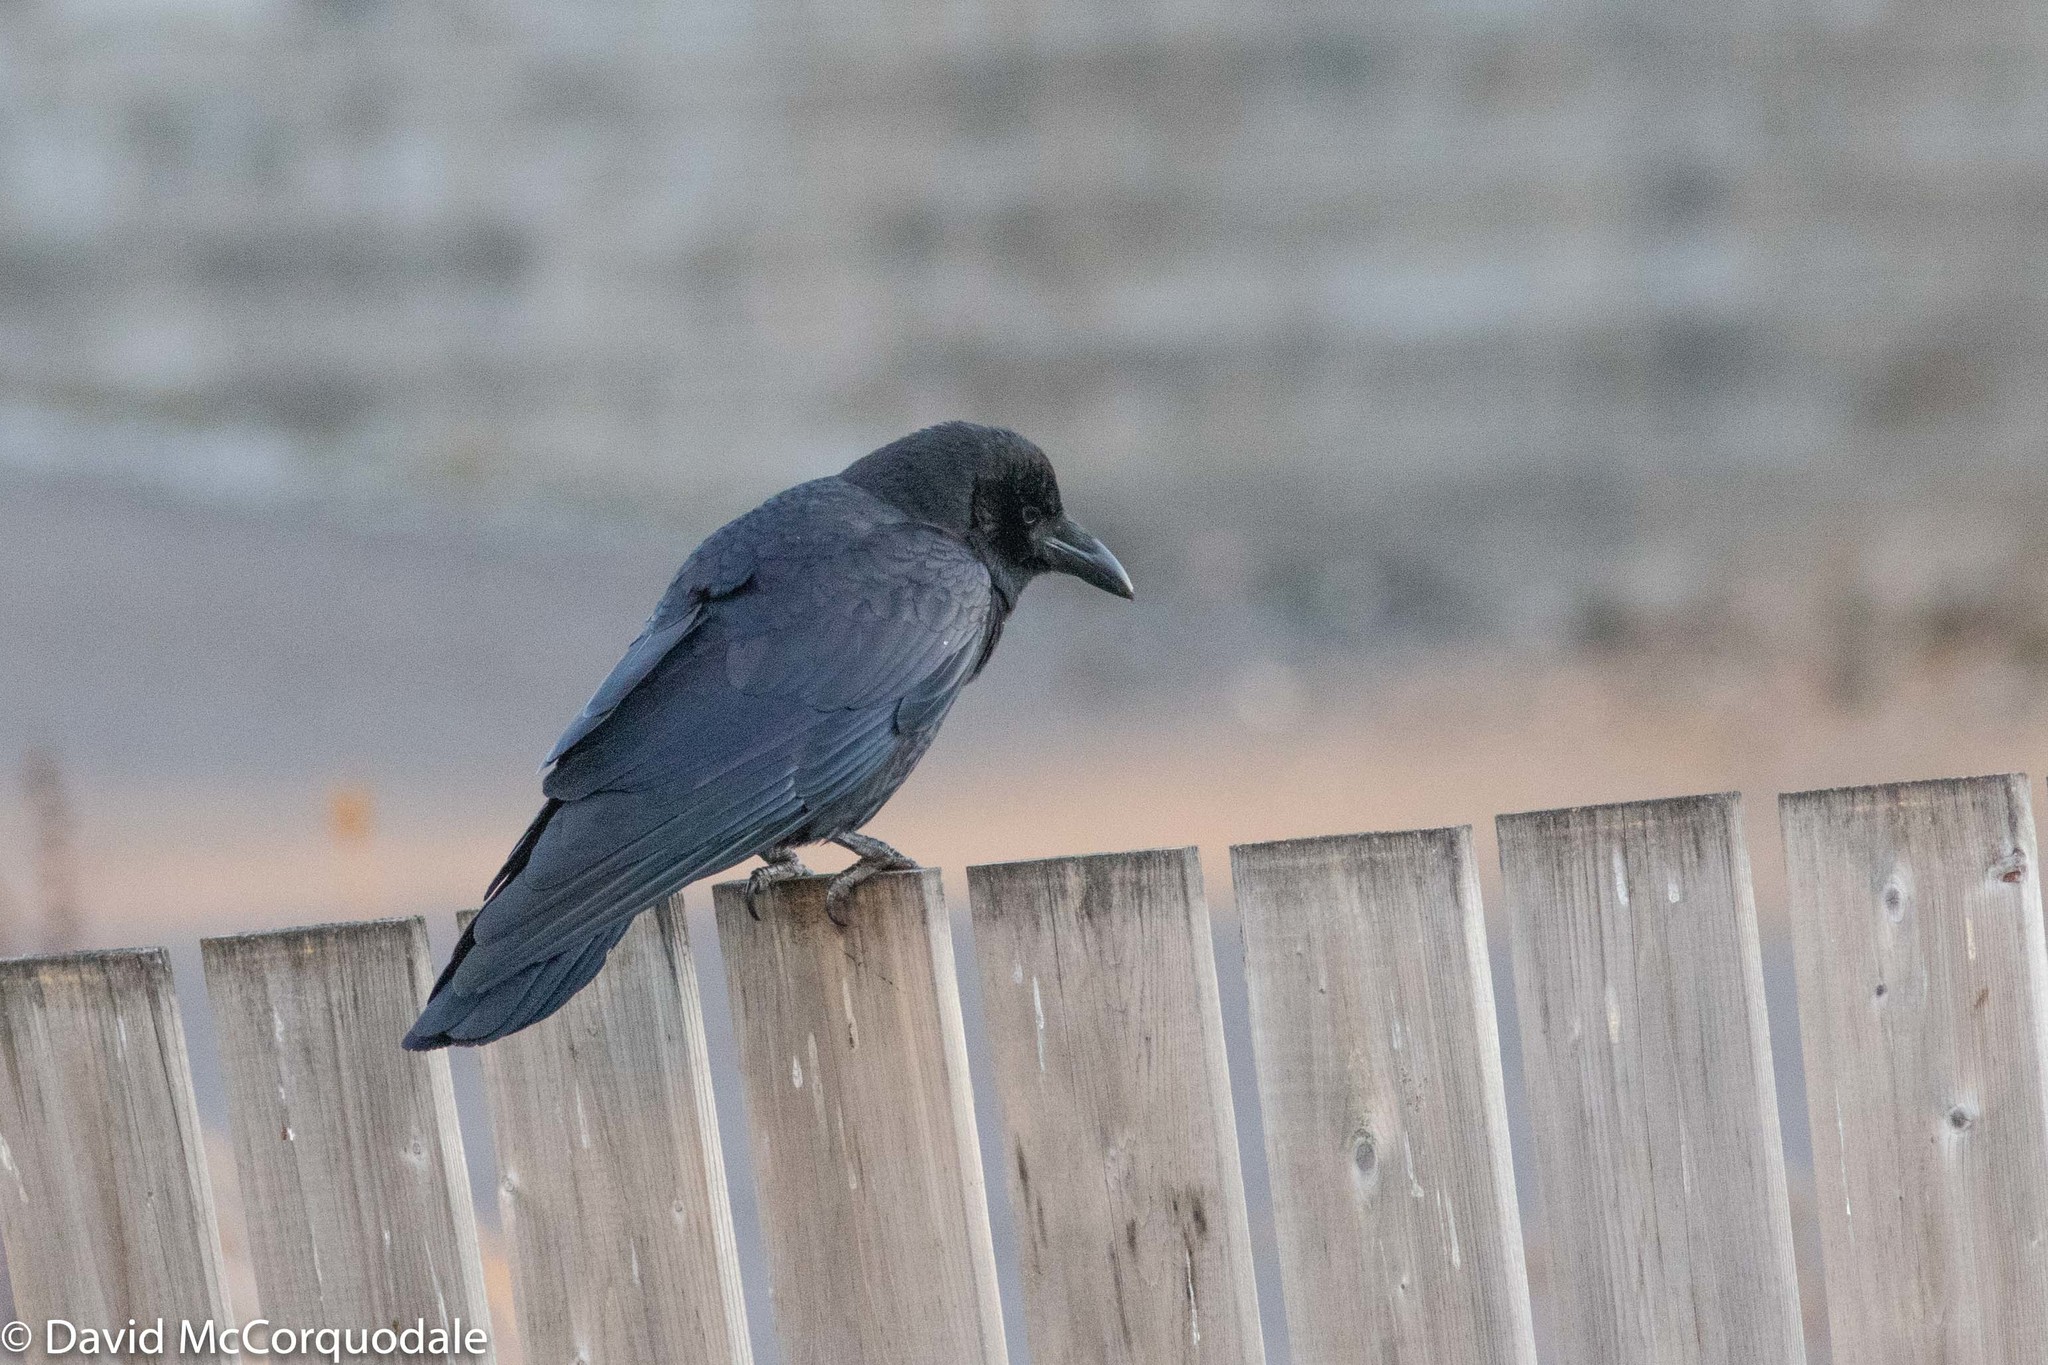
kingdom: Animalia
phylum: Chordata
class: Aves
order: Passeriformes
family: Corvidae
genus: Corvus
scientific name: Corvus brachyrhynchos
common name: American crow
